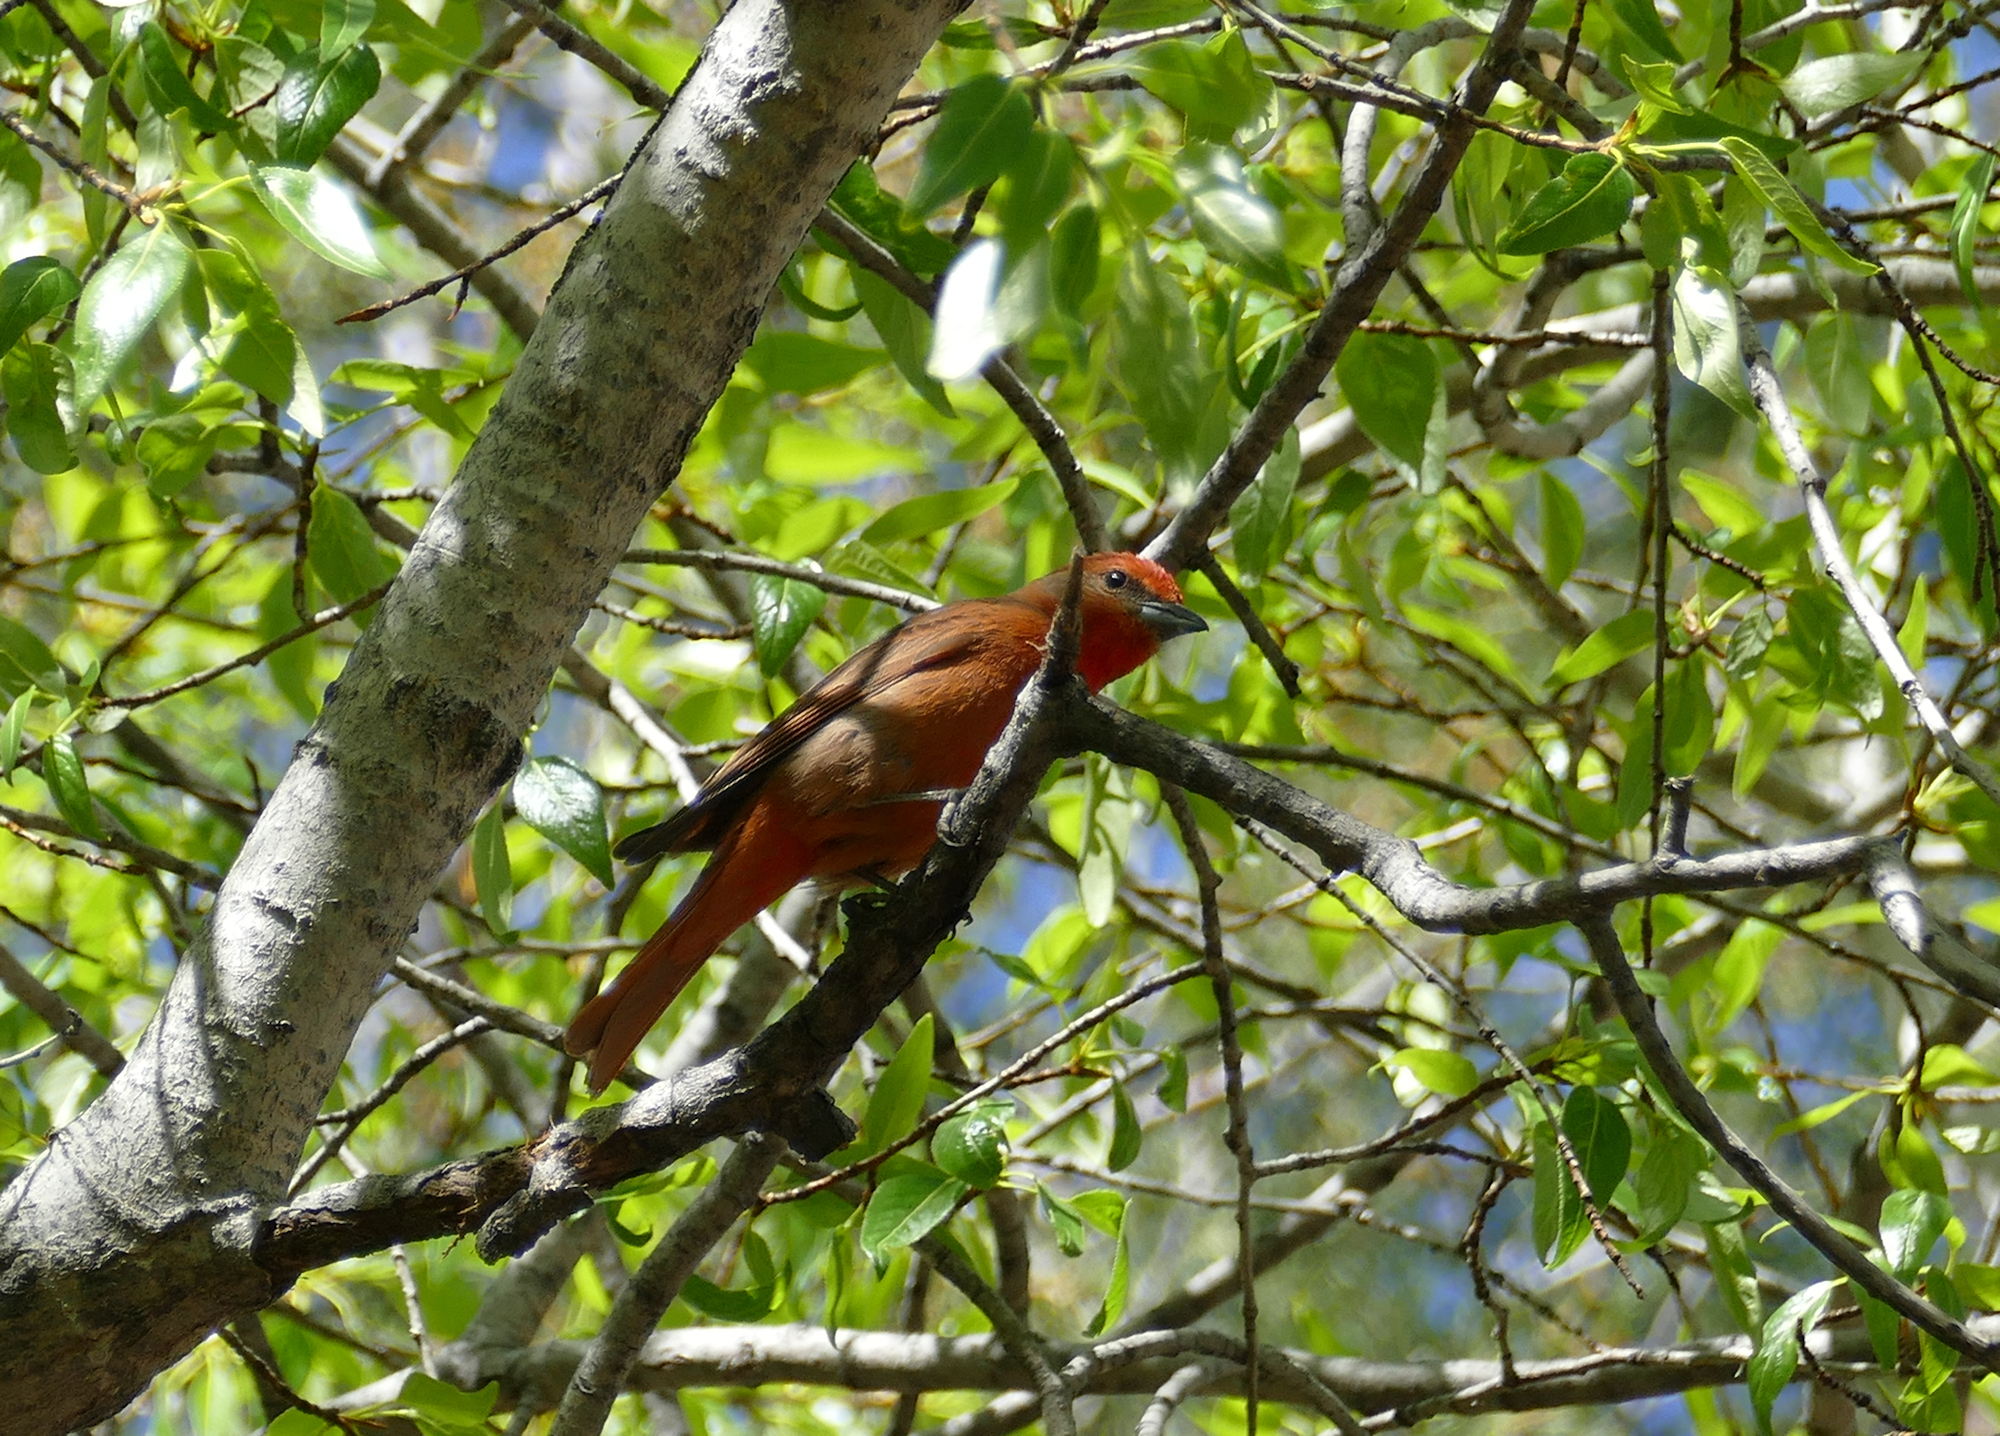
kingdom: Animalia
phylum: Chordata
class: Aves
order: Passeriformes
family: Cardinalidae
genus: Piranga
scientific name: Piranga flava
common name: Red tanager
